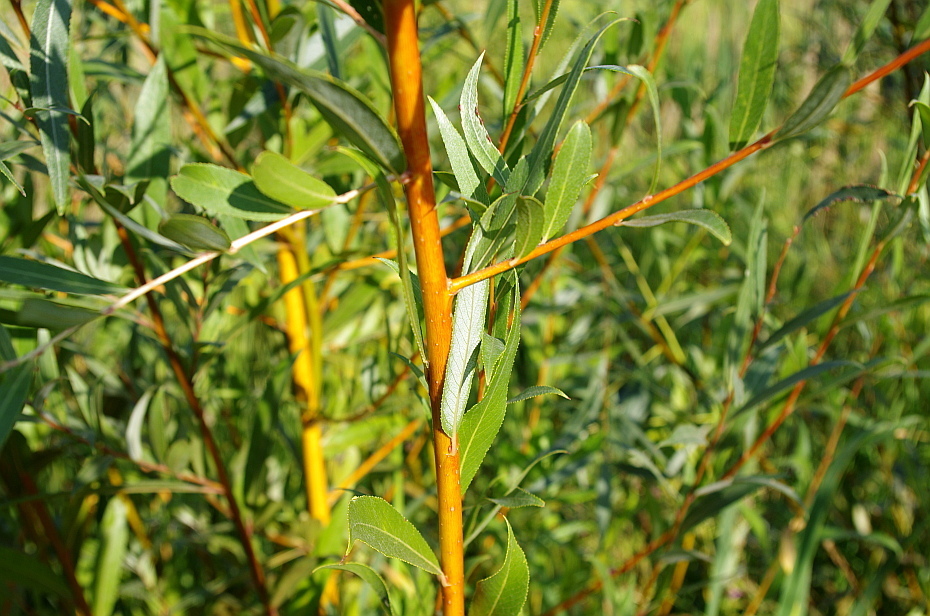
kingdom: Plantae
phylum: Tracheophyta
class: Magnoliopsida
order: Malpighiales
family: Salicaceae
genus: Salix
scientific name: Salix alba
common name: White willow
